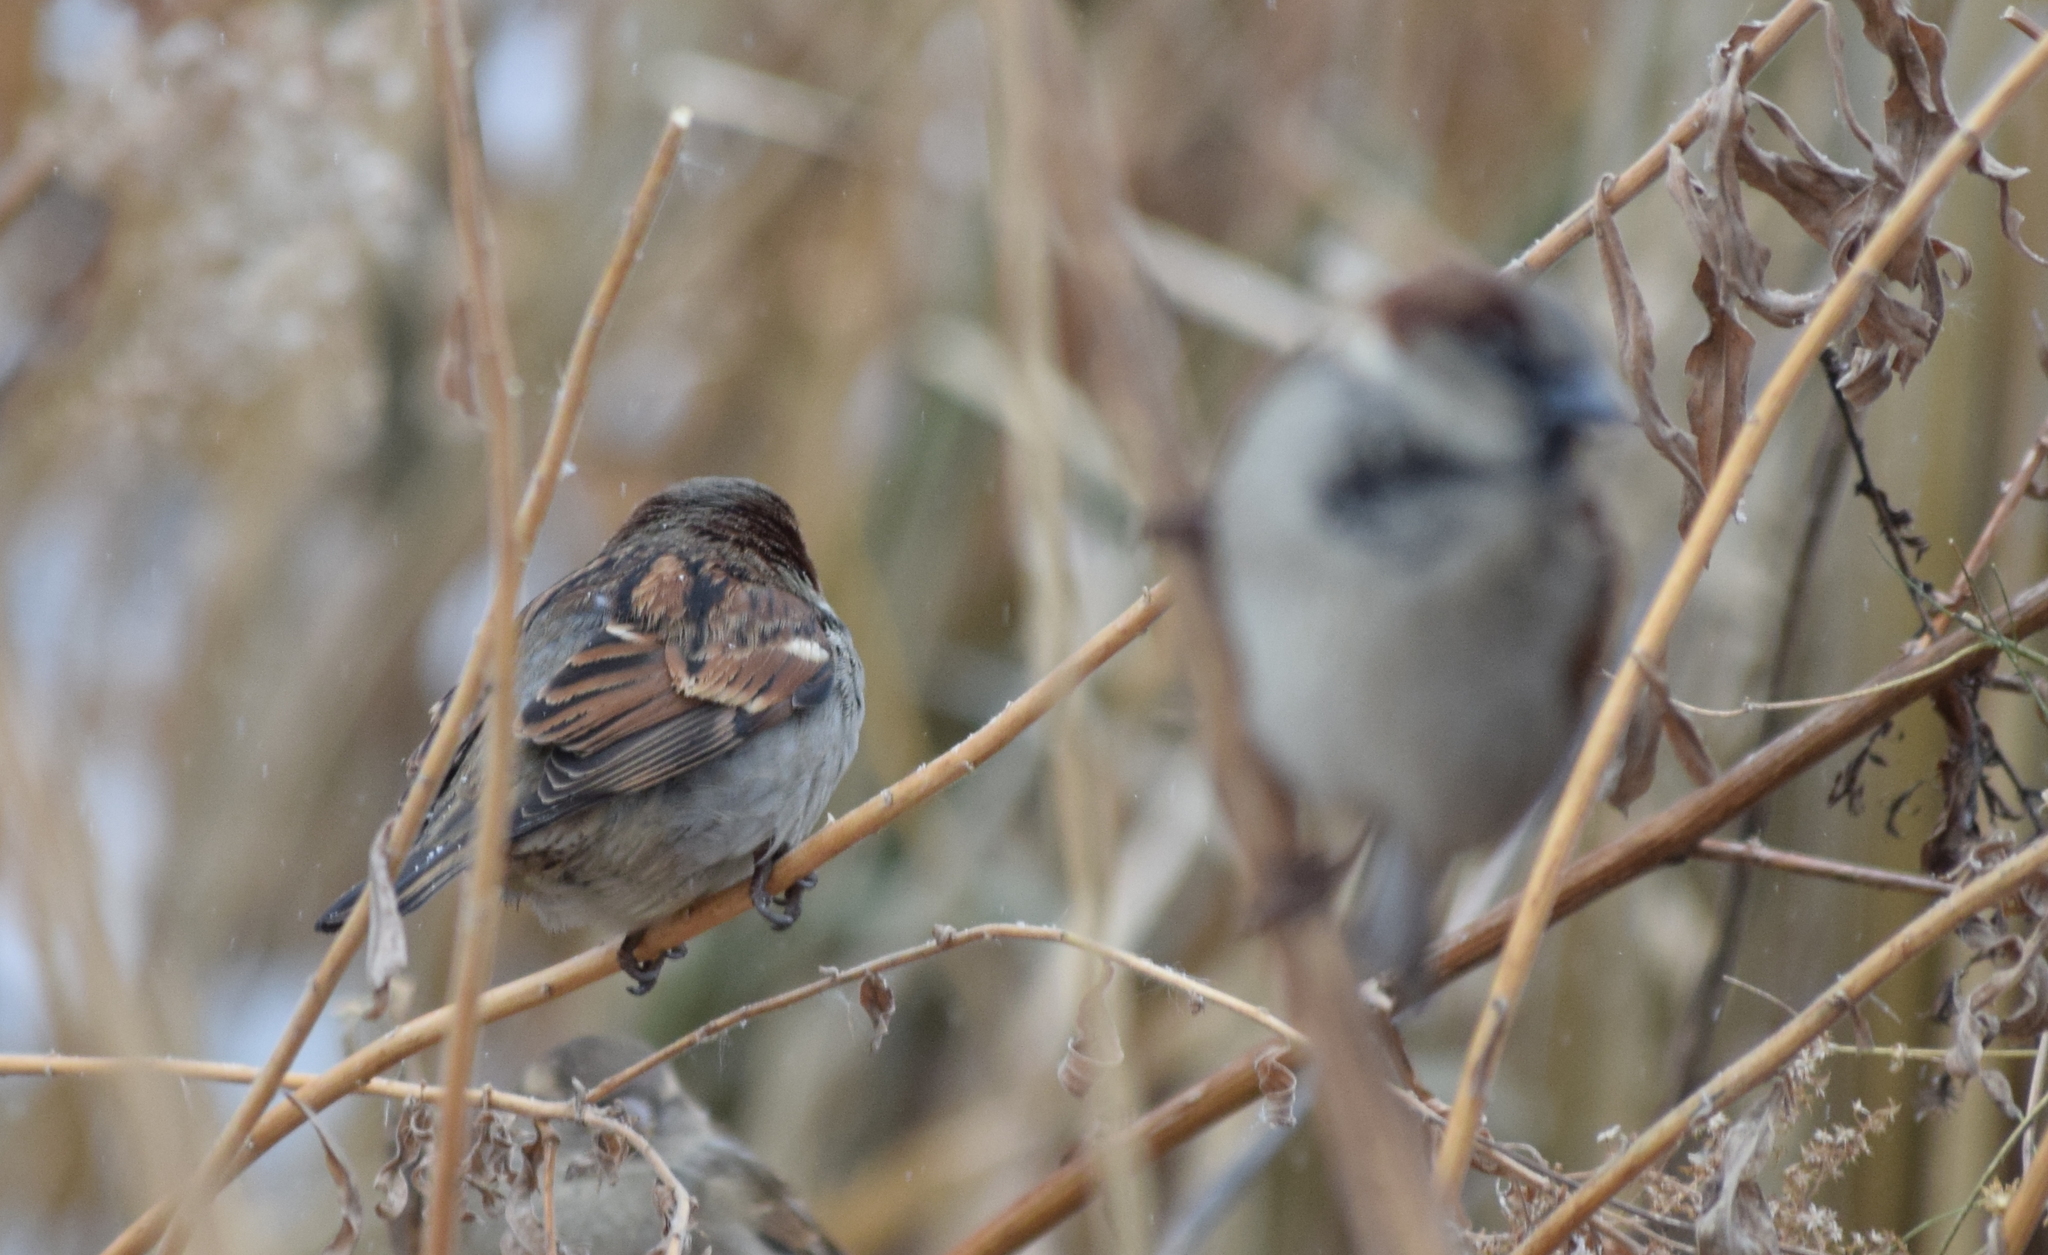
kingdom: Animalia
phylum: Chordata
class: Aves
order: Passeriformes
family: Passeridae
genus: Passer
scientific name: Passer domesticus
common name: House sparrow
